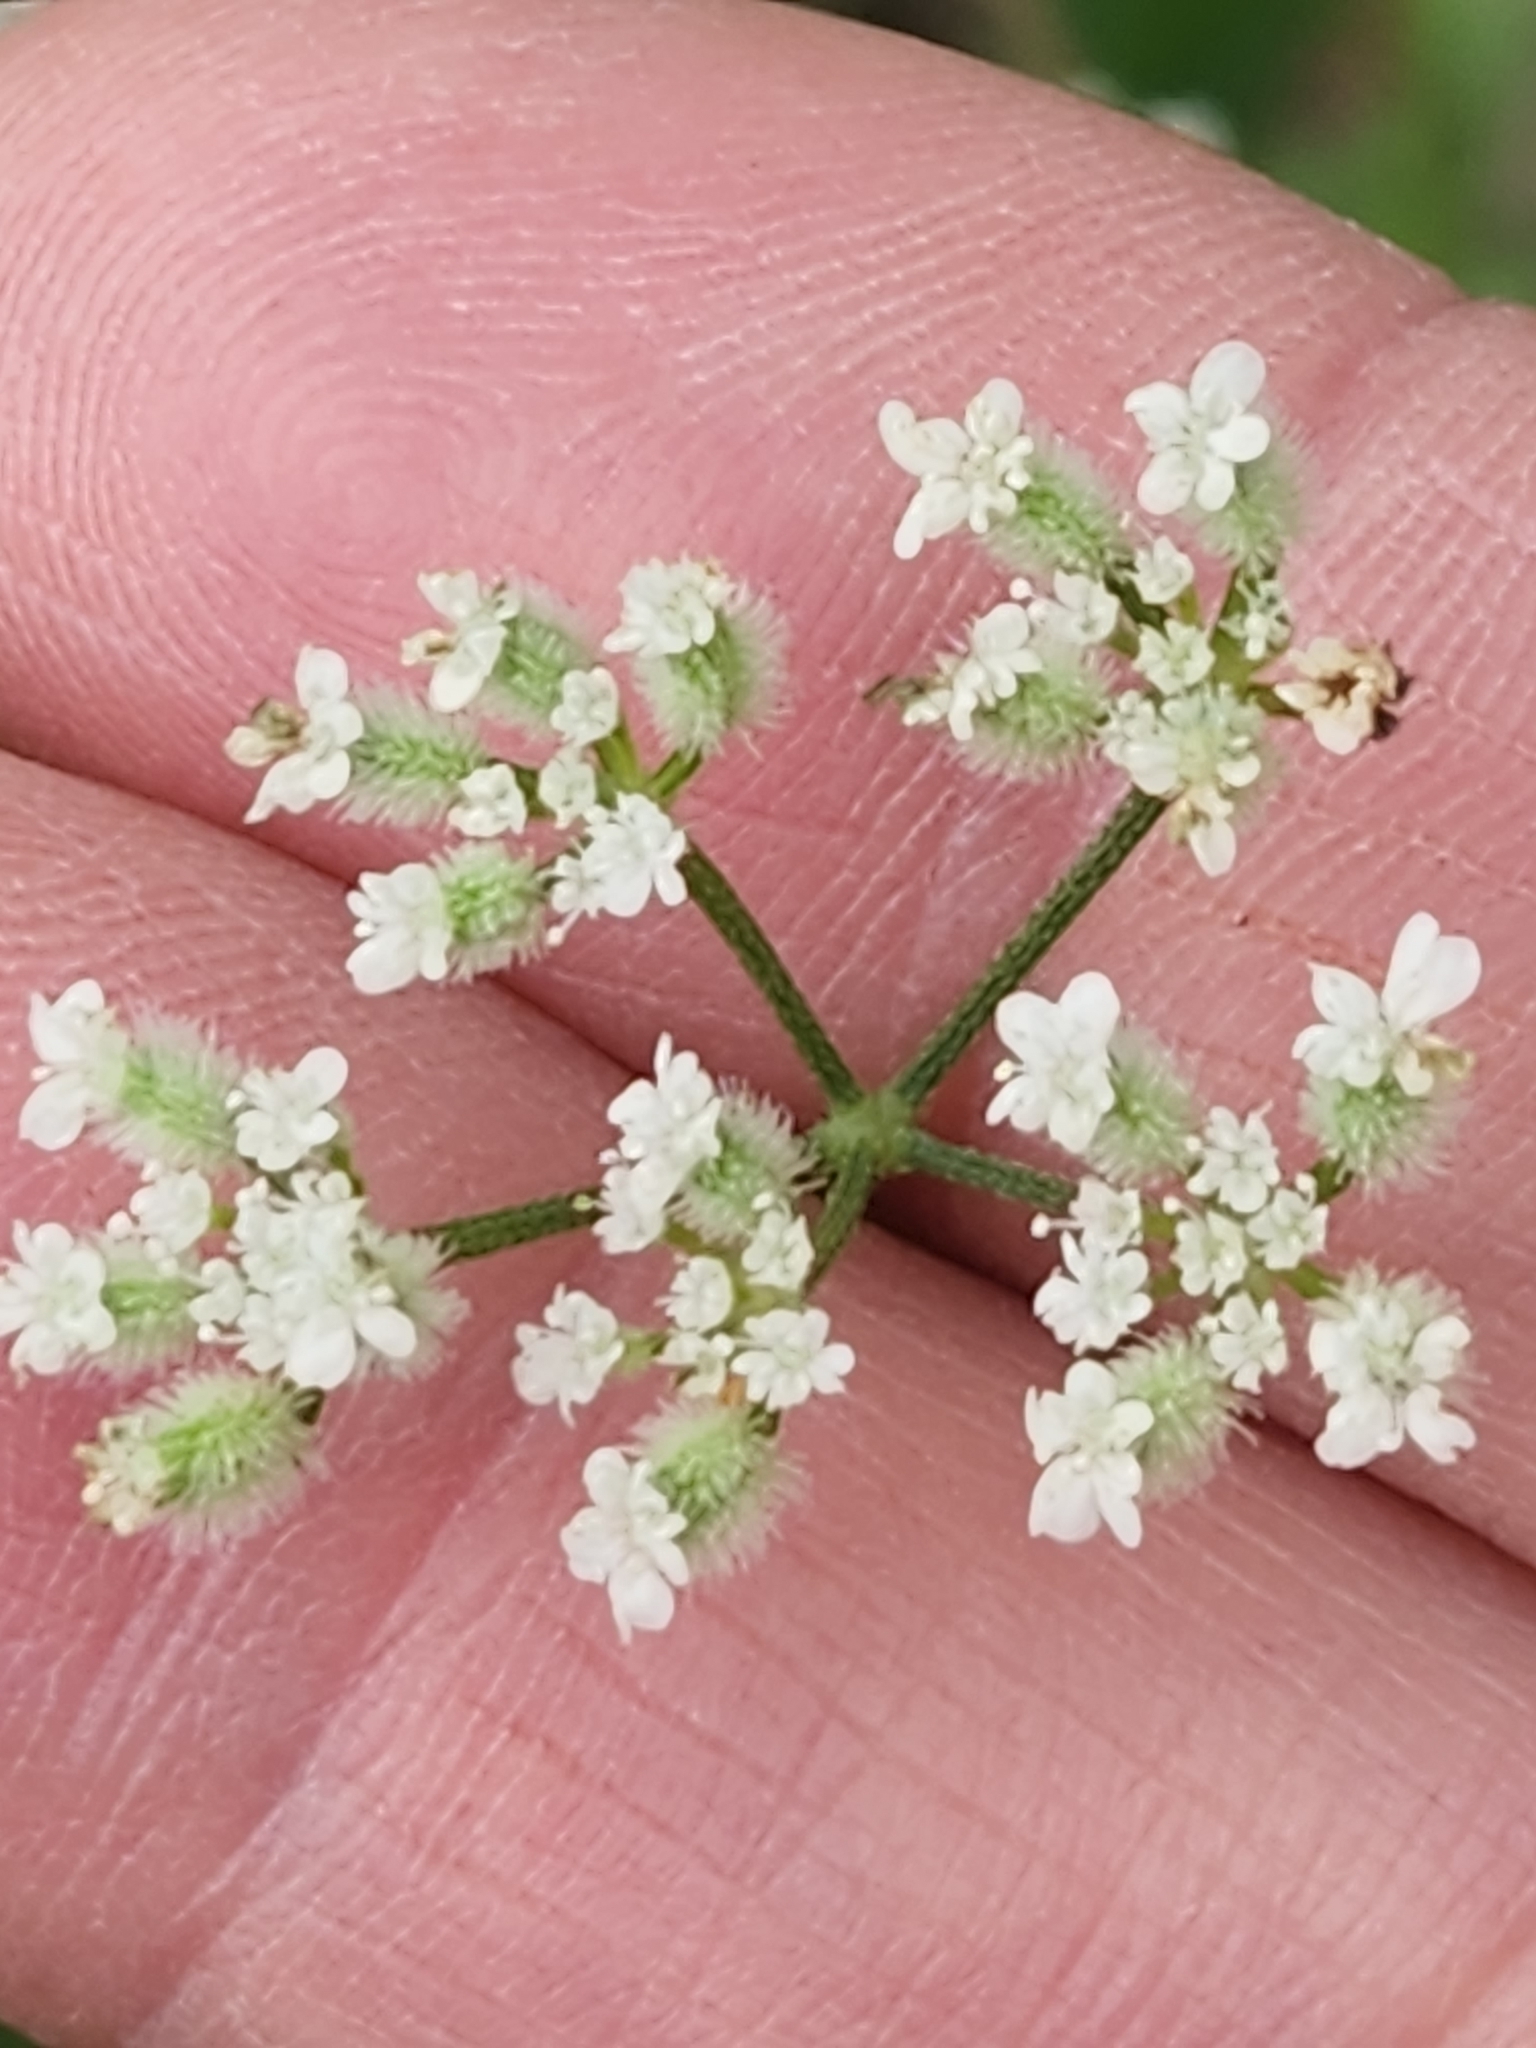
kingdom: Plantae
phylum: Tracheophyta
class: Magnoliopsida
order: Apiales
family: Apiaceae
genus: Torilis
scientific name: Torilis arvensis
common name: Spreading hedge-parsley
